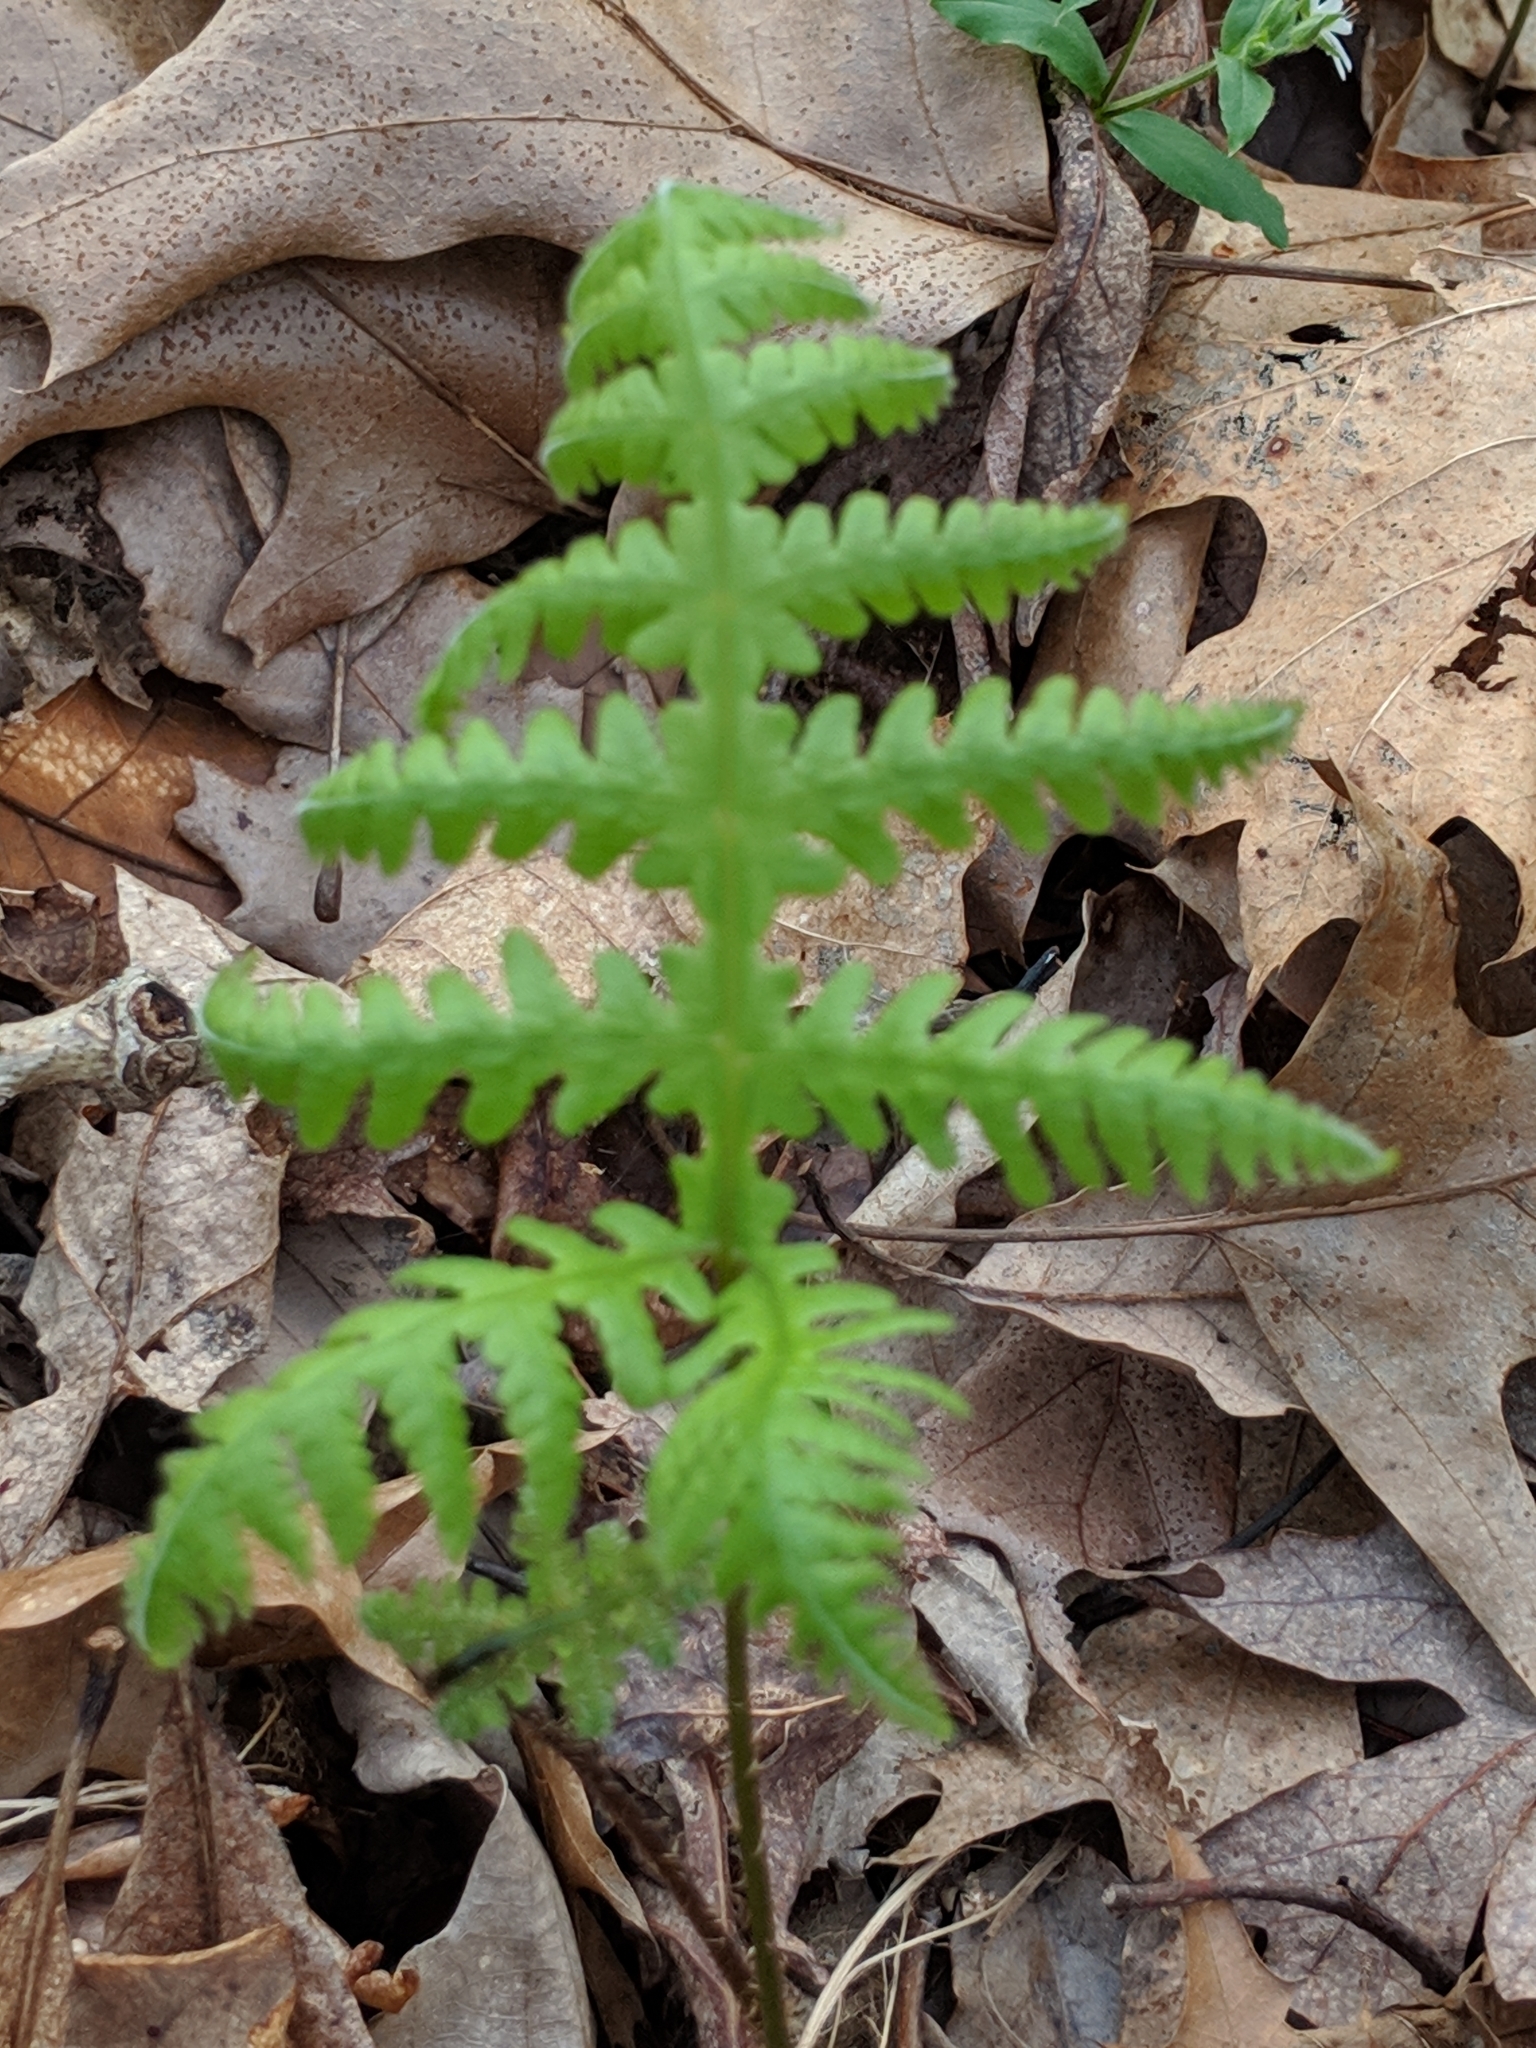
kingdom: Plantae
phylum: Tracheophyta
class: Polypodiopsida
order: Polypodiales
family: Thelypteridaceae
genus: Phegopteris
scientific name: Phegopteris hexagonoptera
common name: Broad beech fern
